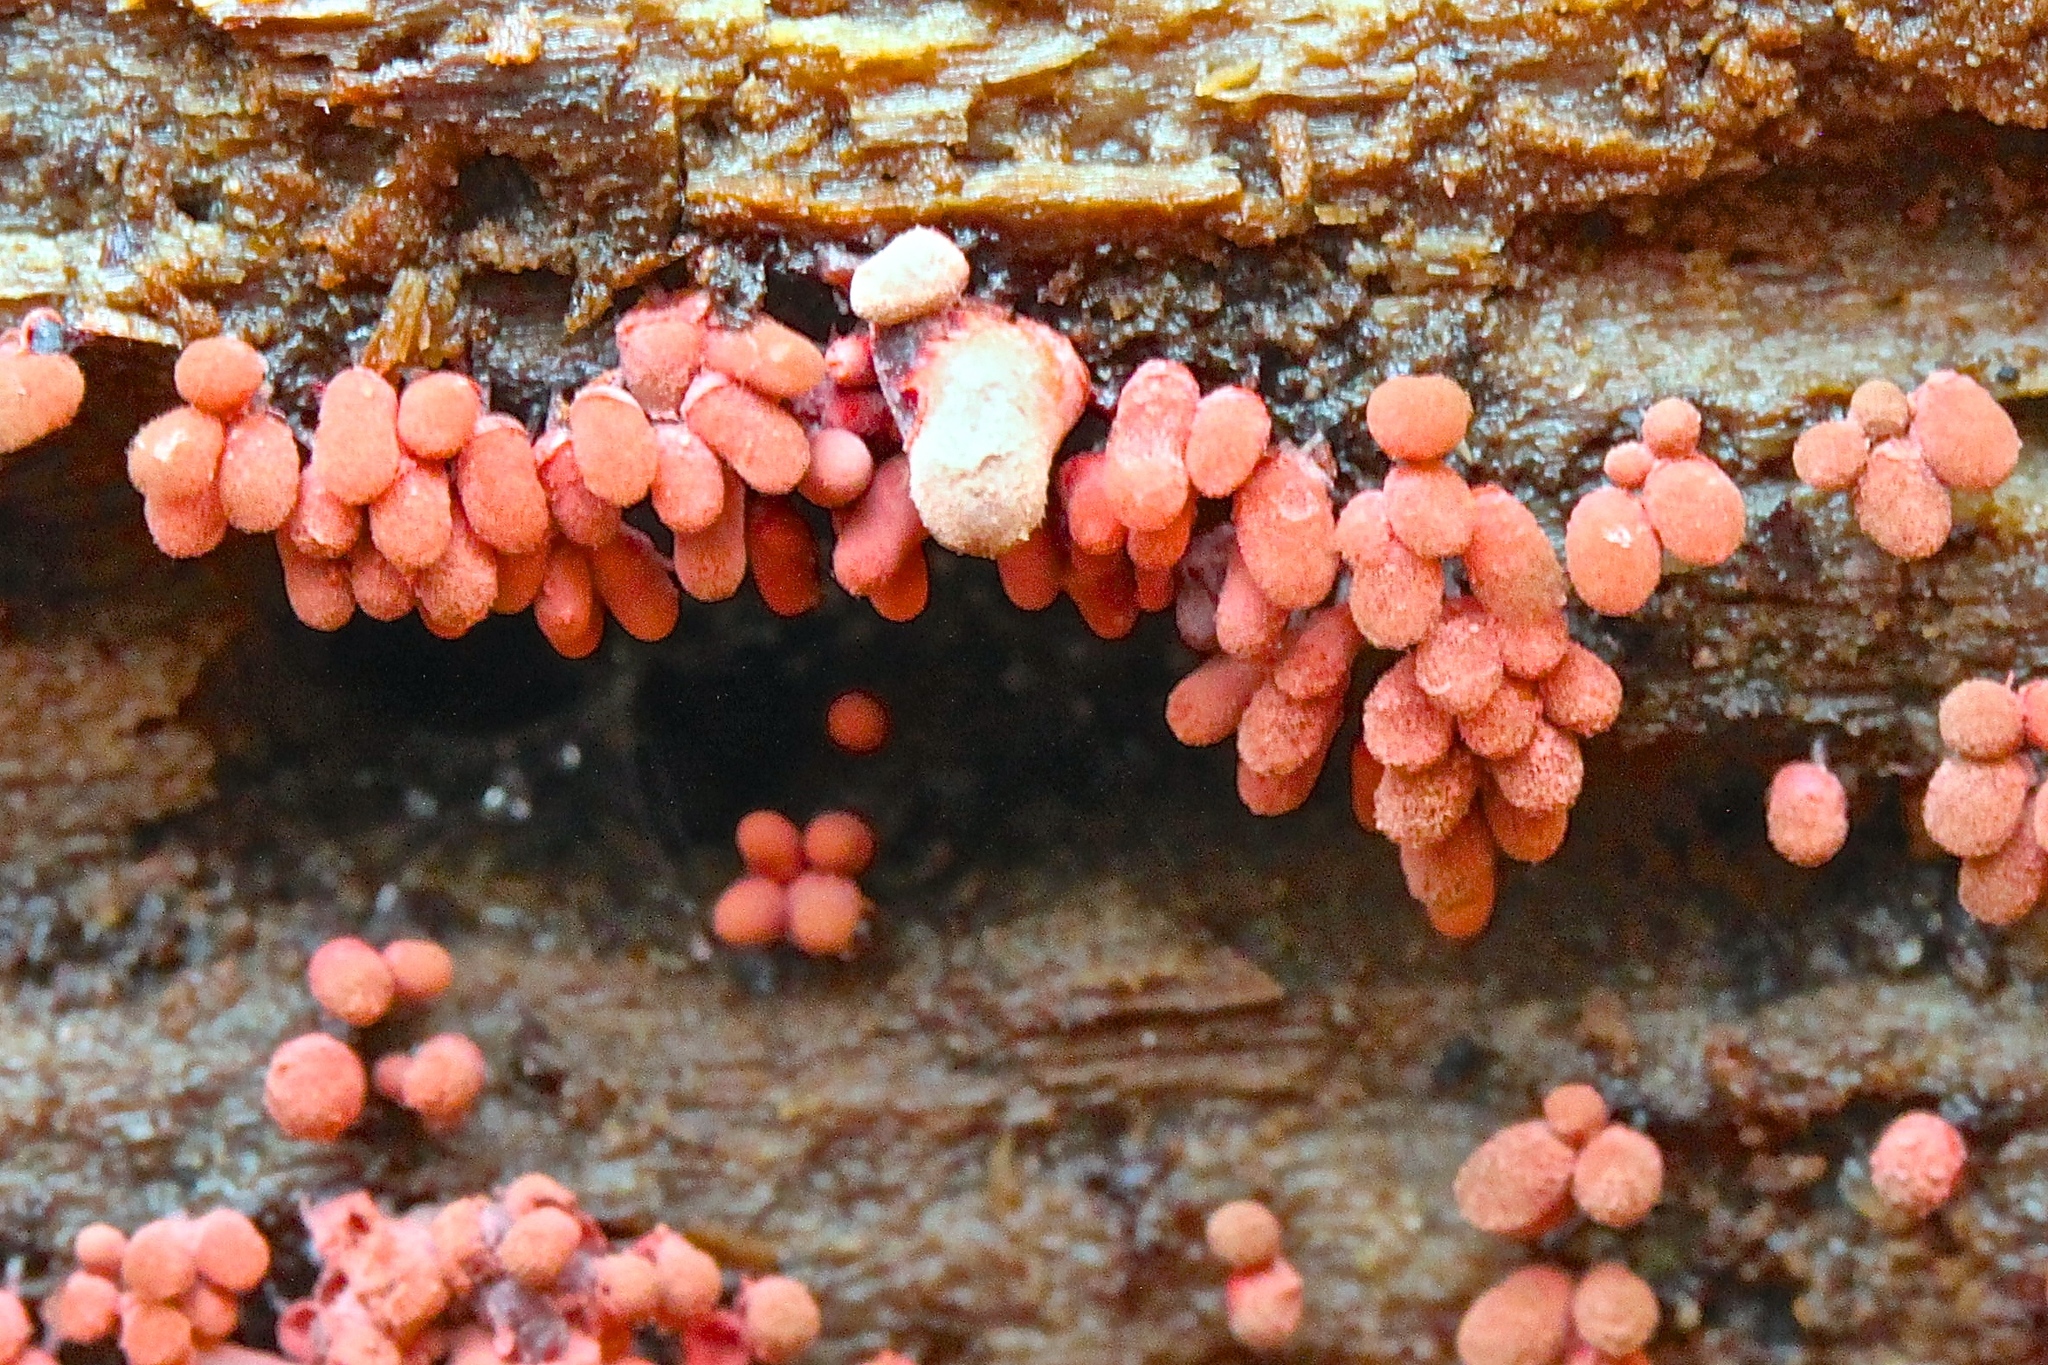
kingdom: Protozoa
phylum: Mycetozoa
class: Myxomycetes
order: Trichiales
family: Arcyriaceae
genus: Arcyria
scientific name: Arcyria denudata
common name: Carnival candy slime mold
